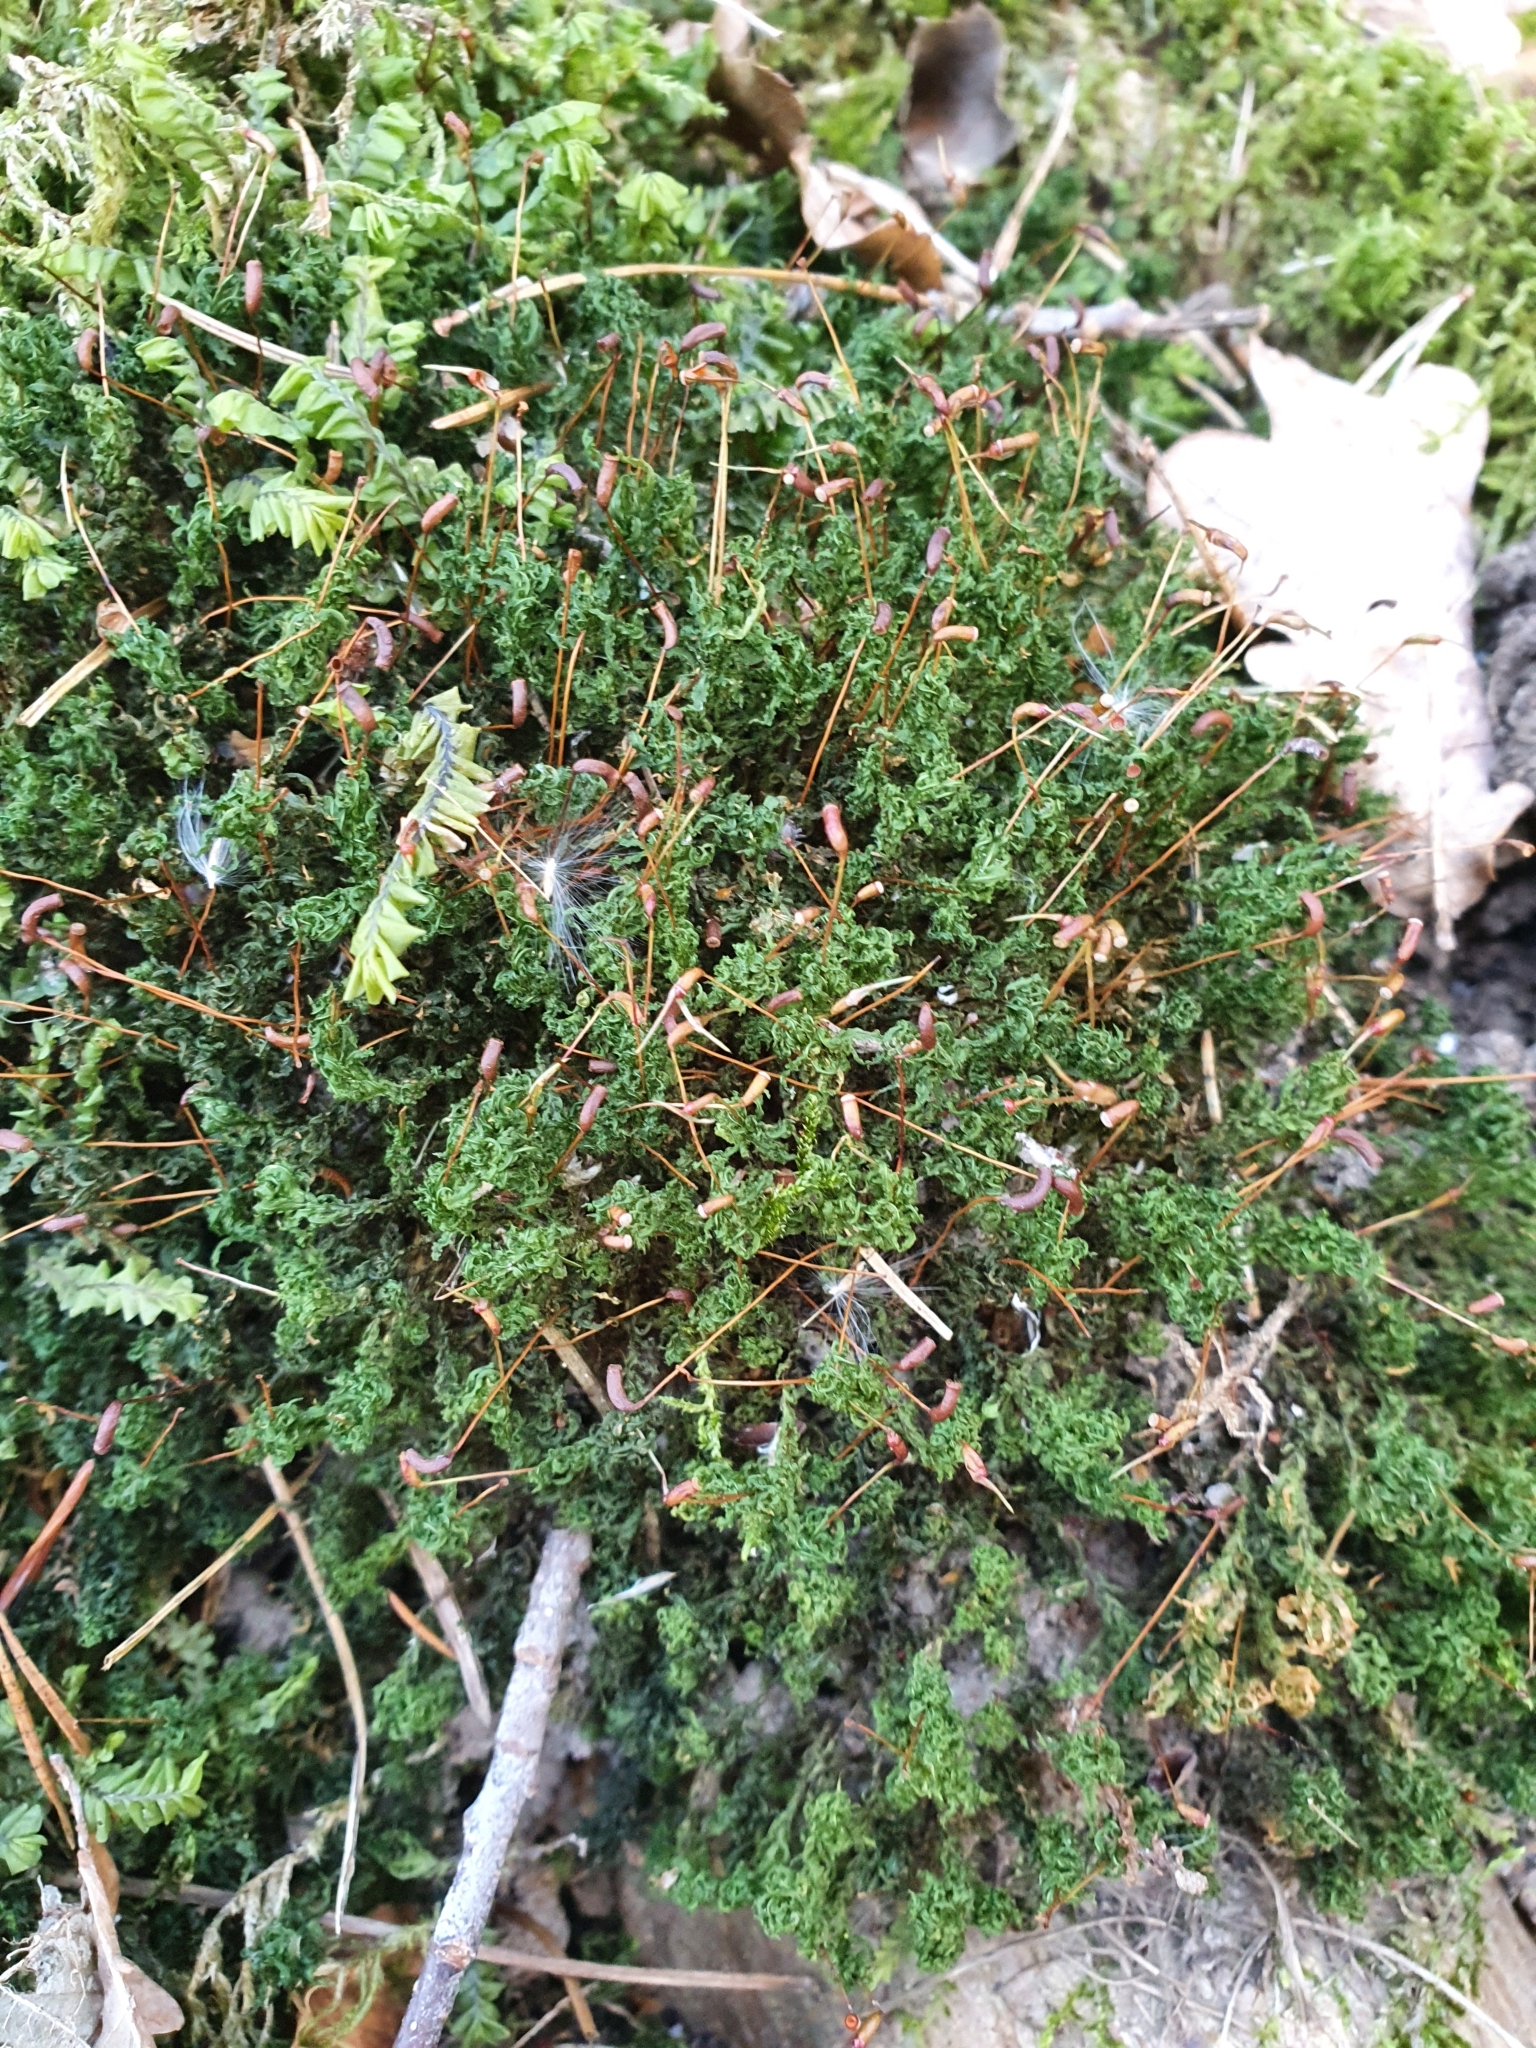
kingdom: Plantae
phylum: Bryophyta
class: Bryopsida
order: Bryales
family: Mniaceae
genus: Plagiomnium
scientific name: Plagiomnium undulatum
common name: Hart's-tongue thyme-moss
